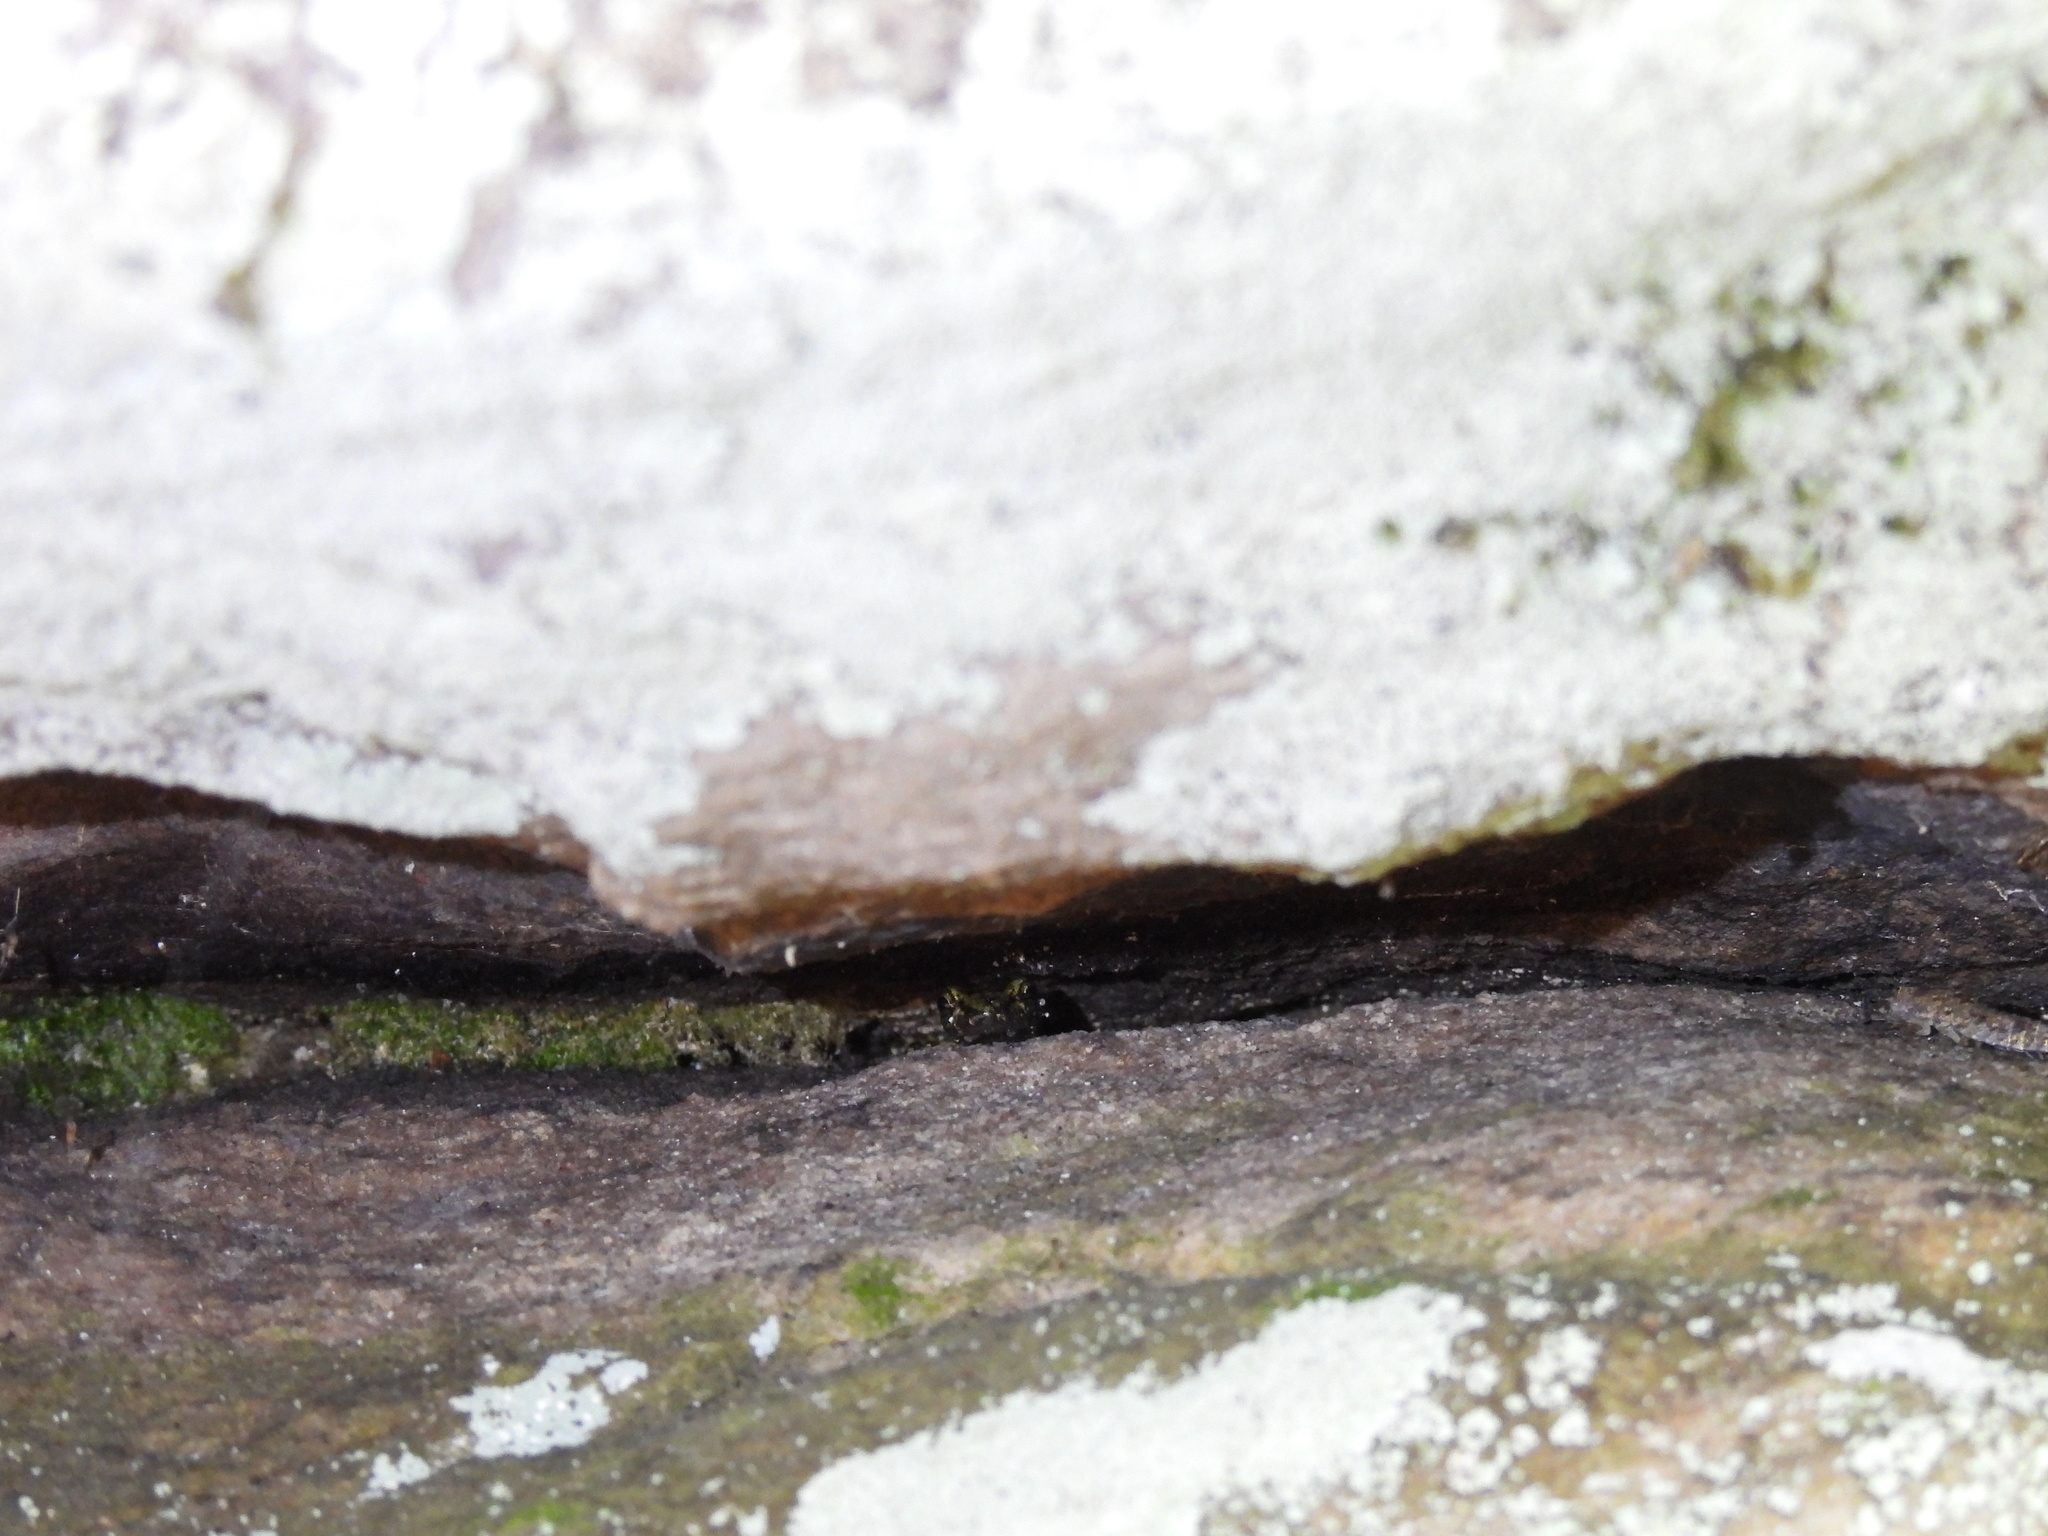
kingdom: Animalia
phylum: Chordata
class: Amphibia
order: Caudata
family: Plethodontidae
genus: Aneides
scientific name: Aneides aeneus
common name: Green salamander
